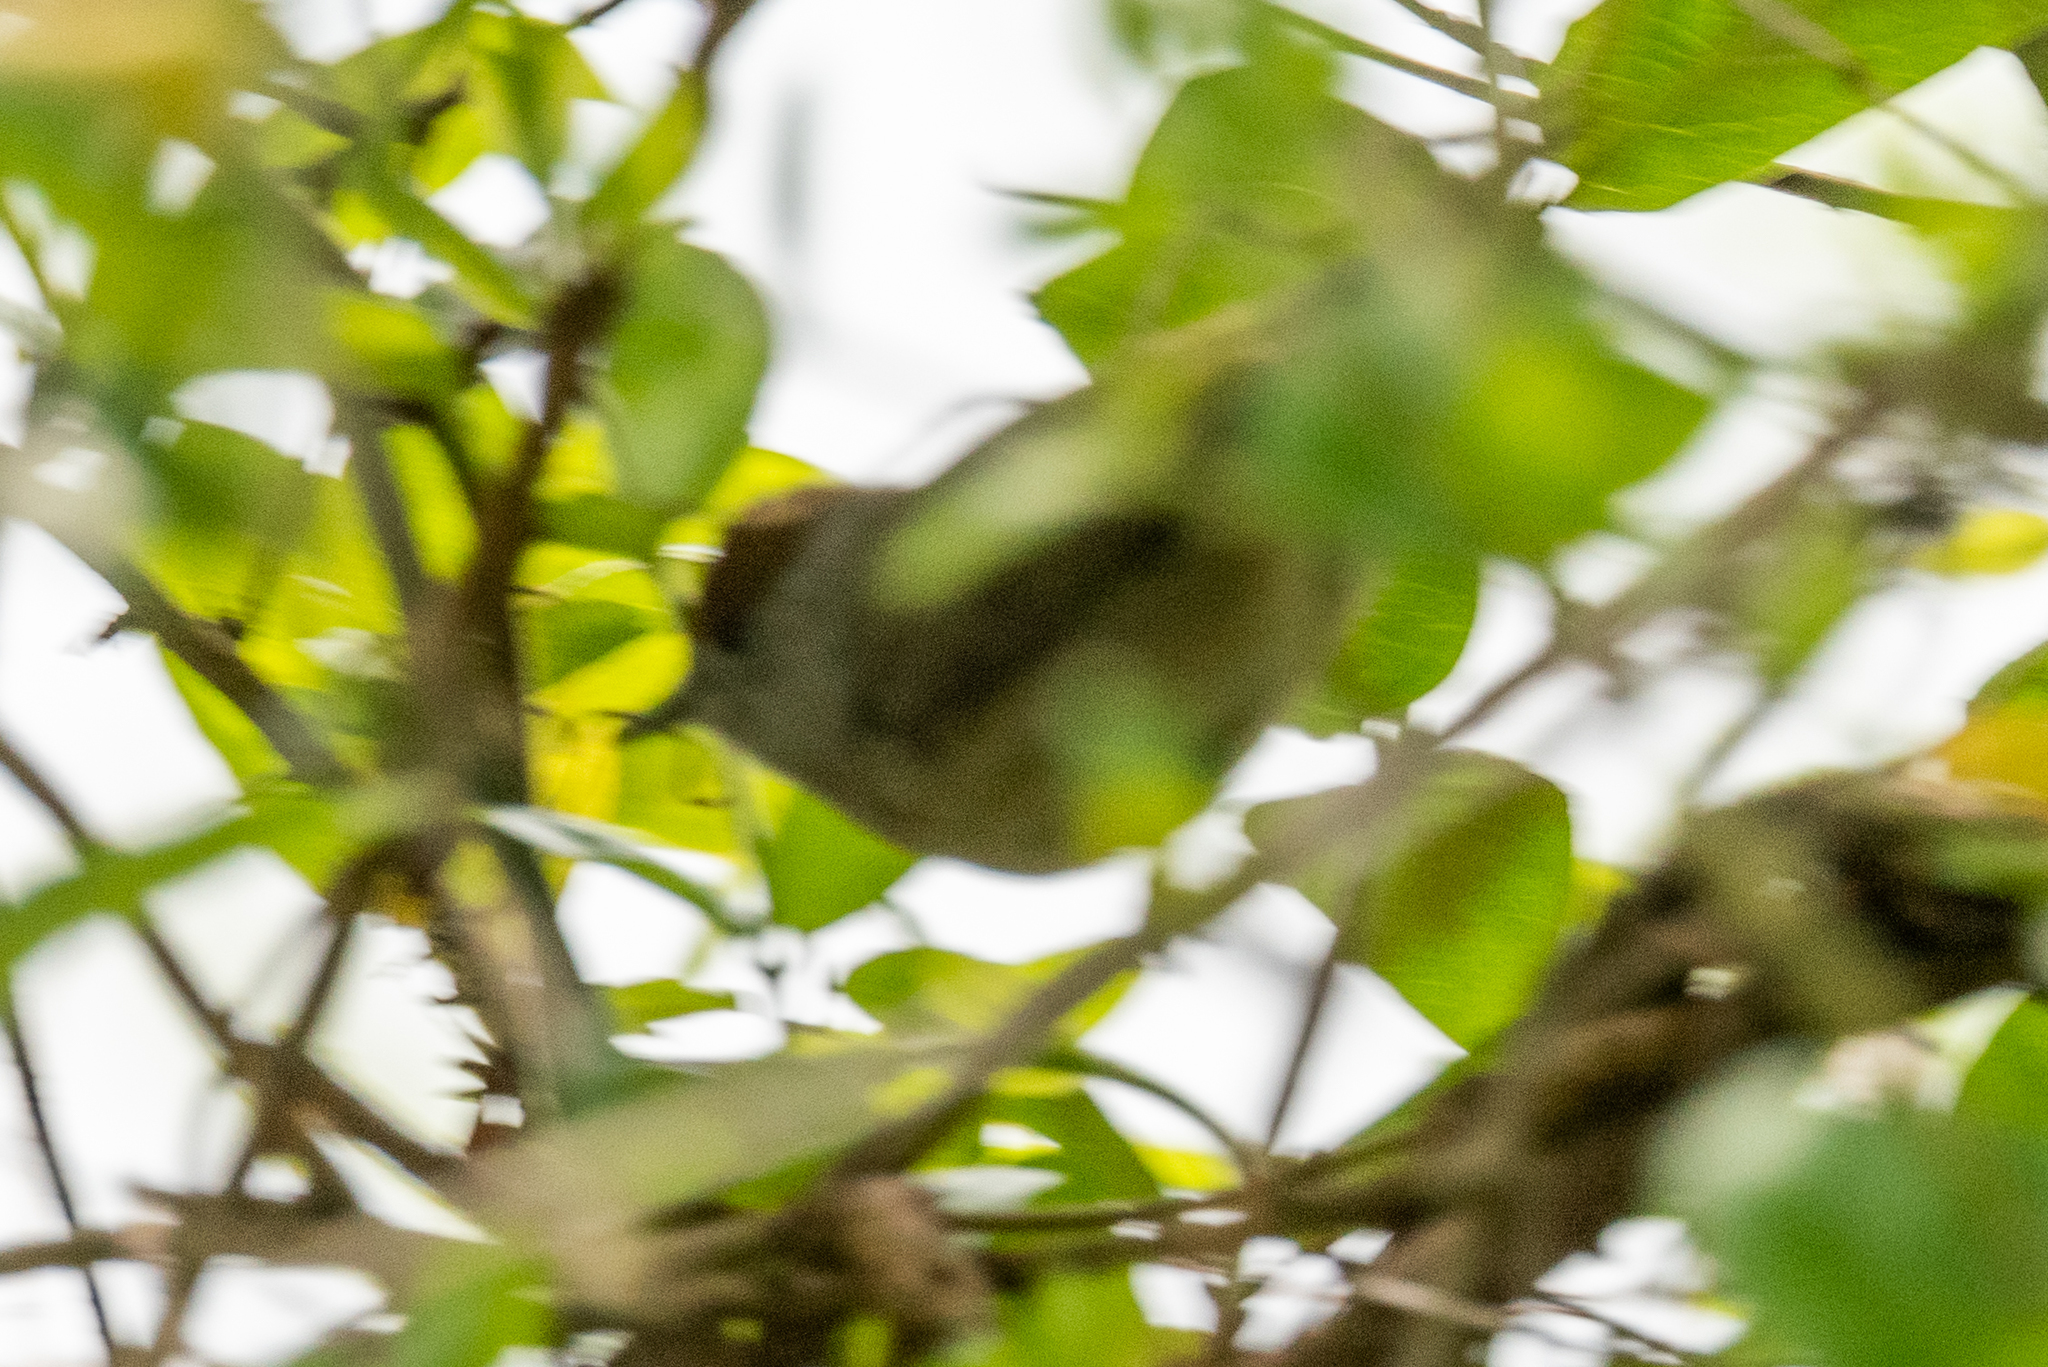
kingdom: Animalia
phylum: Chordata
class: Aves
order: Passeriformes
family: Sylviidae
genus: Sylvia
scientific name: Sylvia atricapilla
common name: Eurasian blackcap
